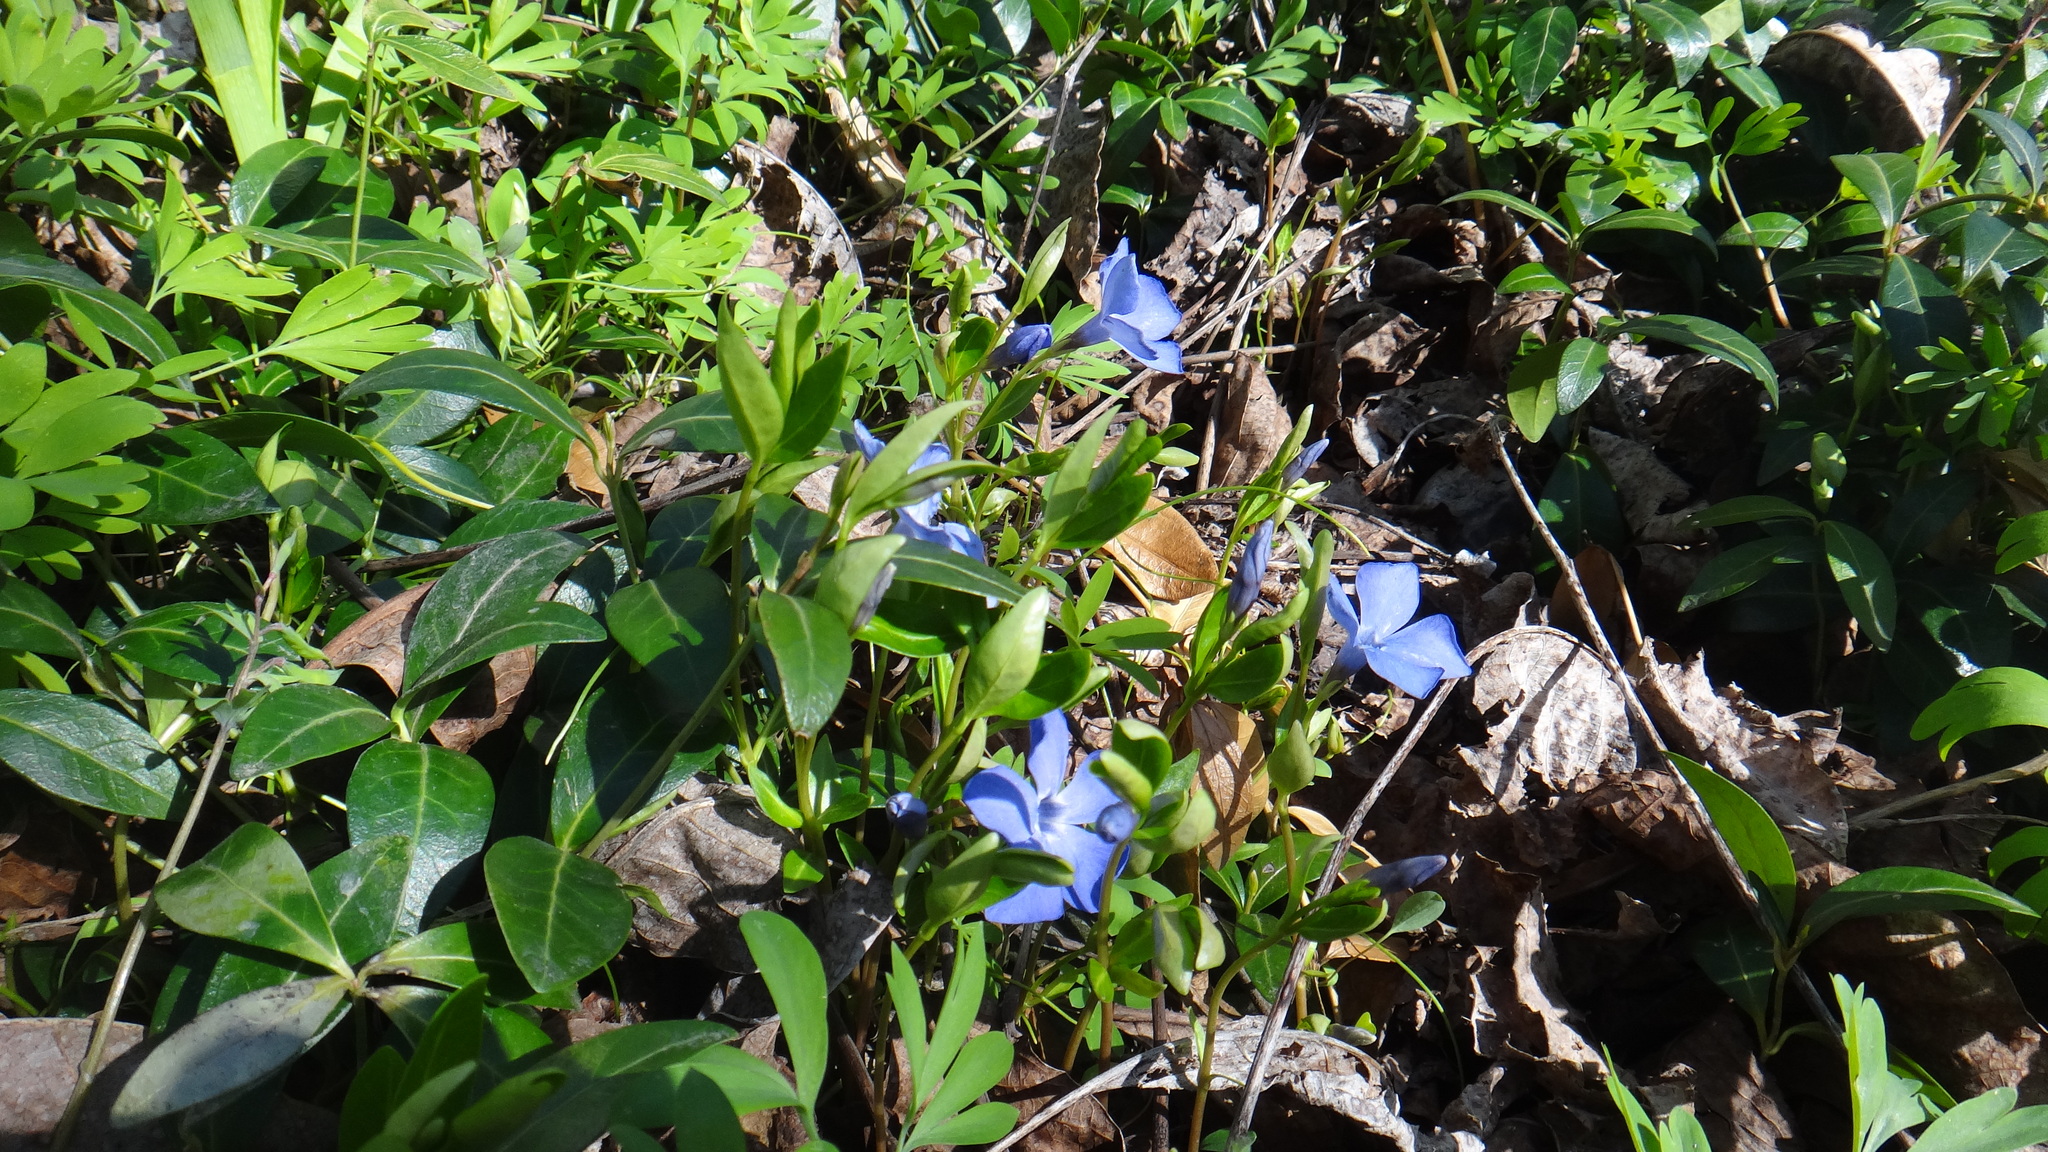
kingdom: Plantae
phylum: Tracheophyta
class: Magnoliopsida
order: Gentianales
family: Apocynaceae
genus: Vinca
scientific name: Vinca minor
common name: Lesser periwinkle
